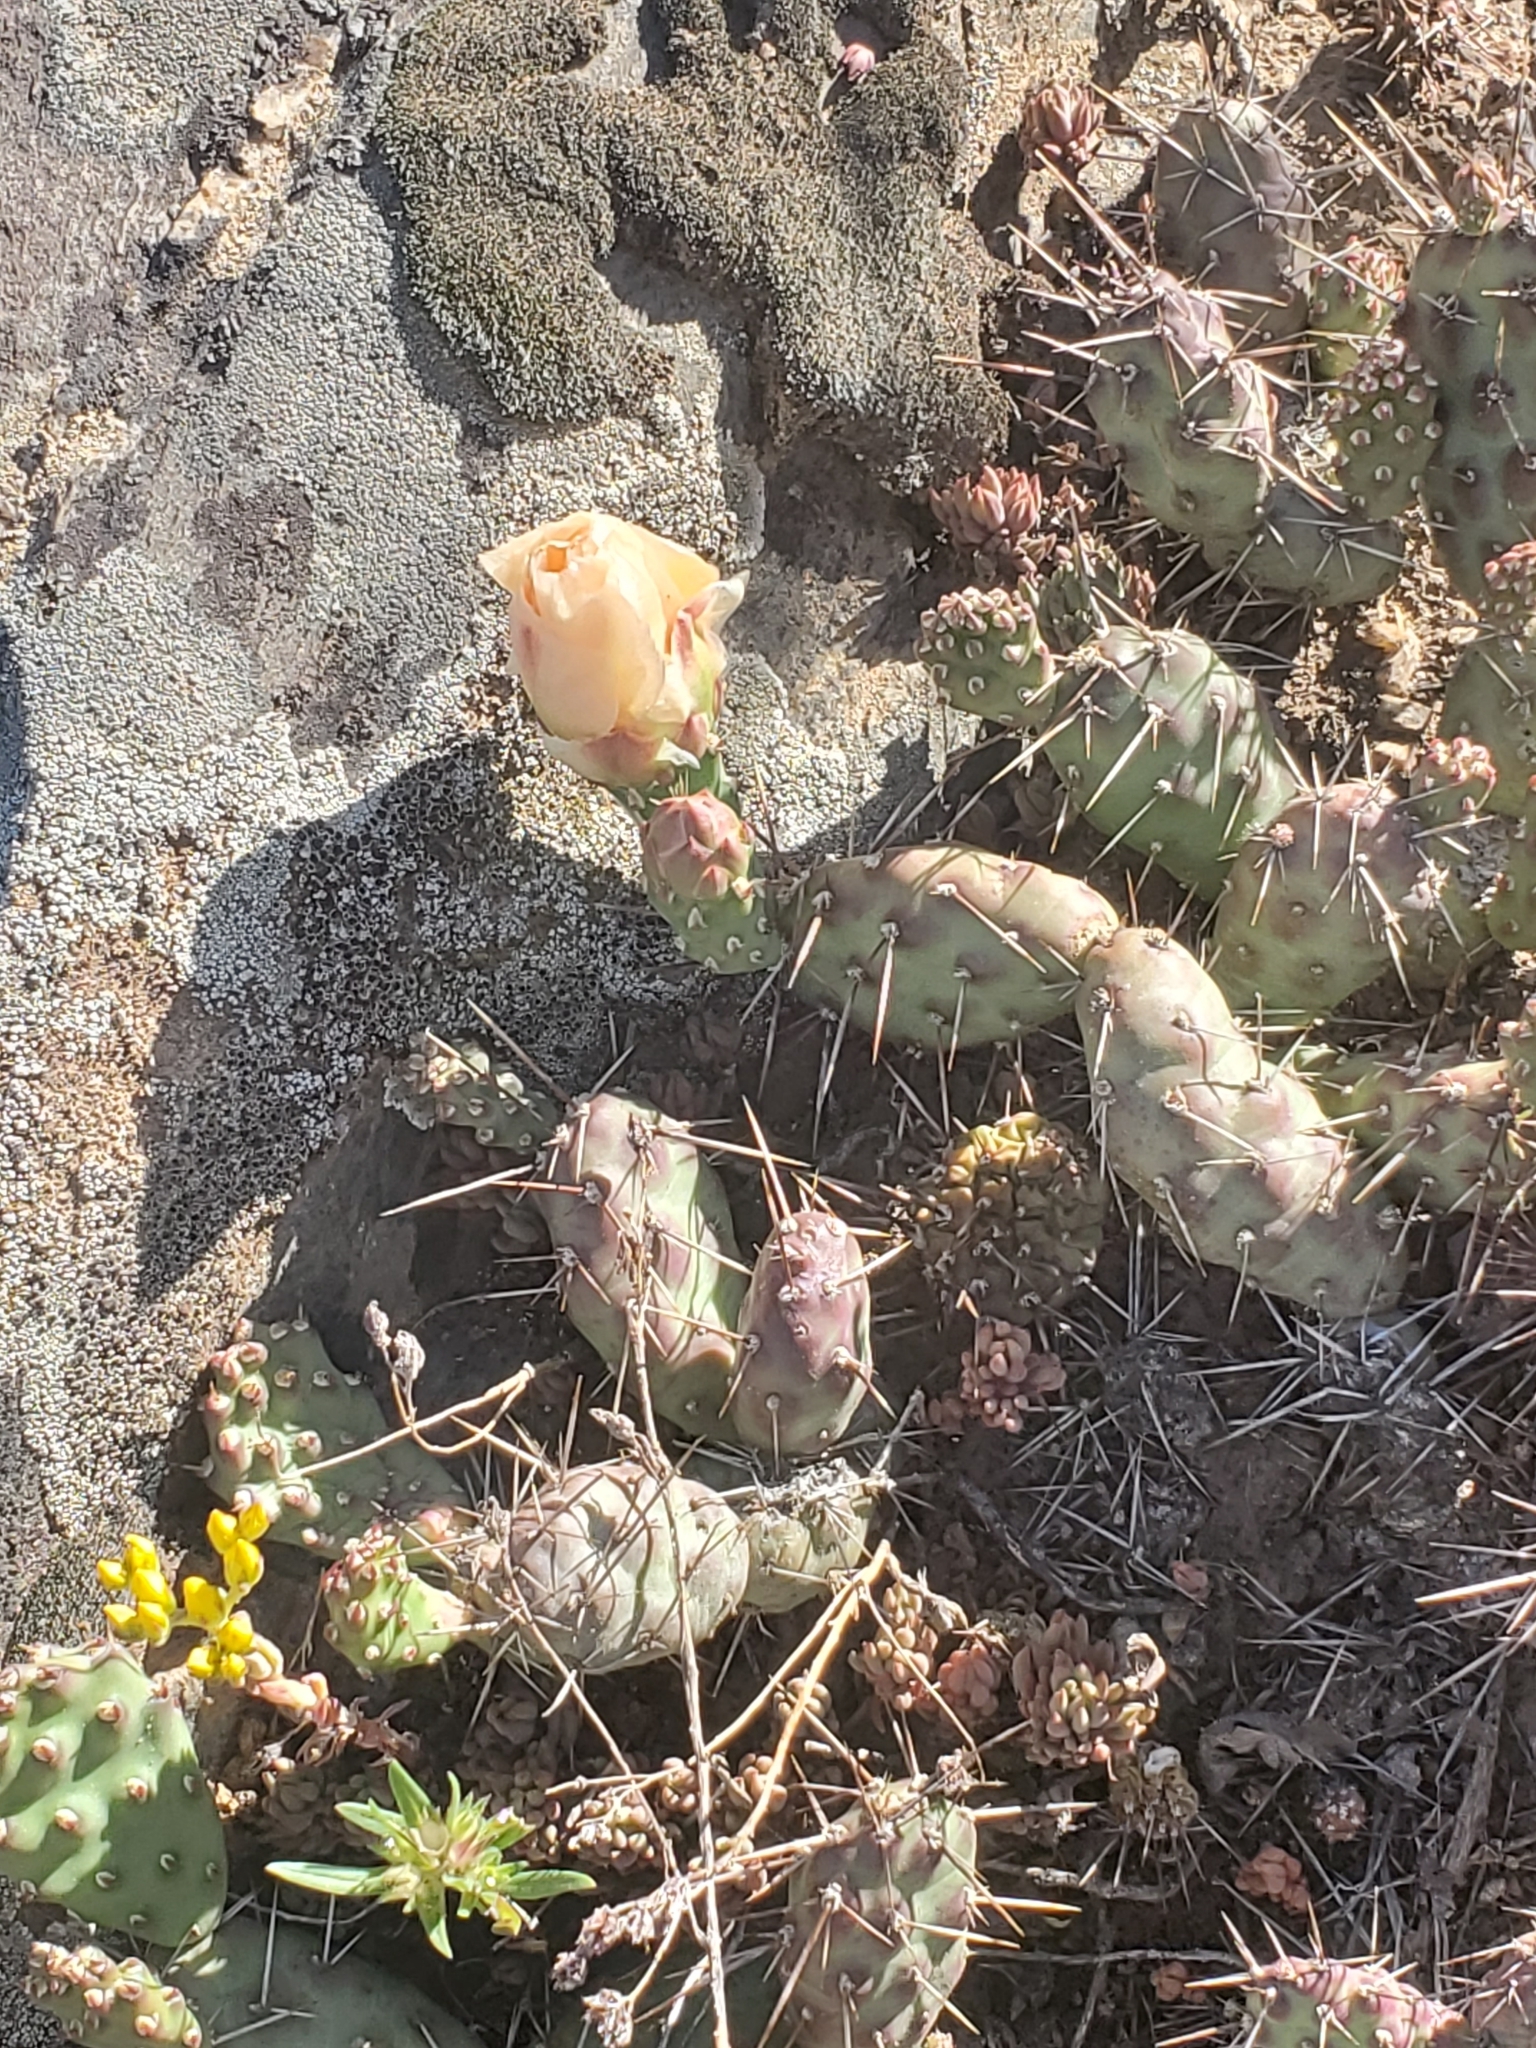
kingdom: Plantae
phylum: Tracheophyta
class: Magnoliopsida
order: Caryophyllales
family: Cactaceae
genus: Opuntia
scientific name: Opuntia fragilis
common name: Brittle cactus
